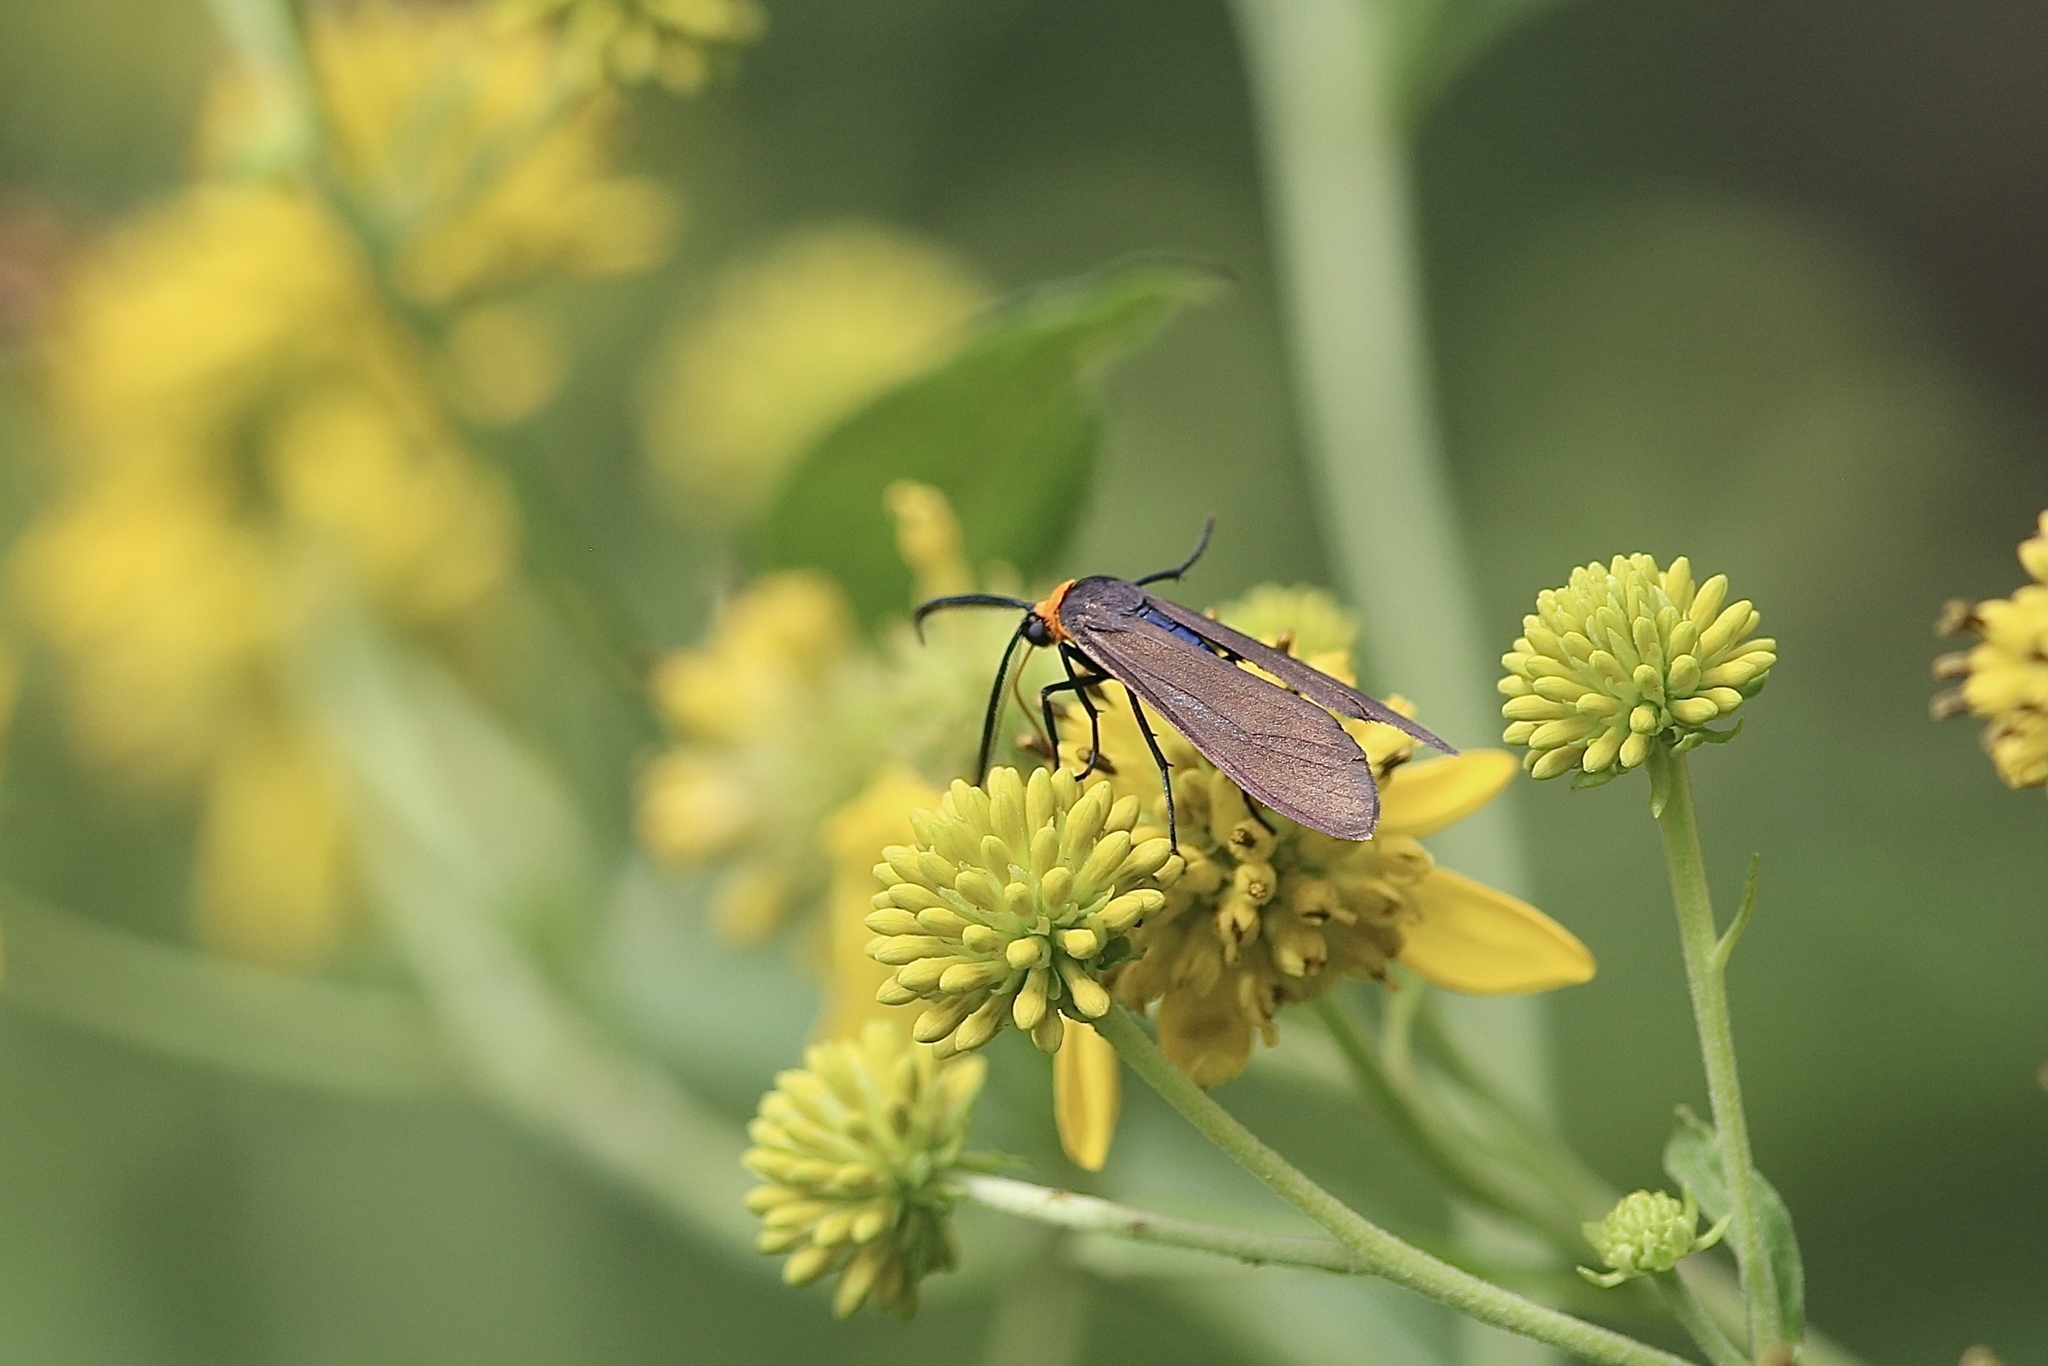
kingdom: Animalia
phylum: Arthropoda
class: Insecta
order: Lepidoptera
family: Erebidae
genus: Cisseps
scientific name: Cisseps fulvicollis
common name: Yellow-collared scape moth
